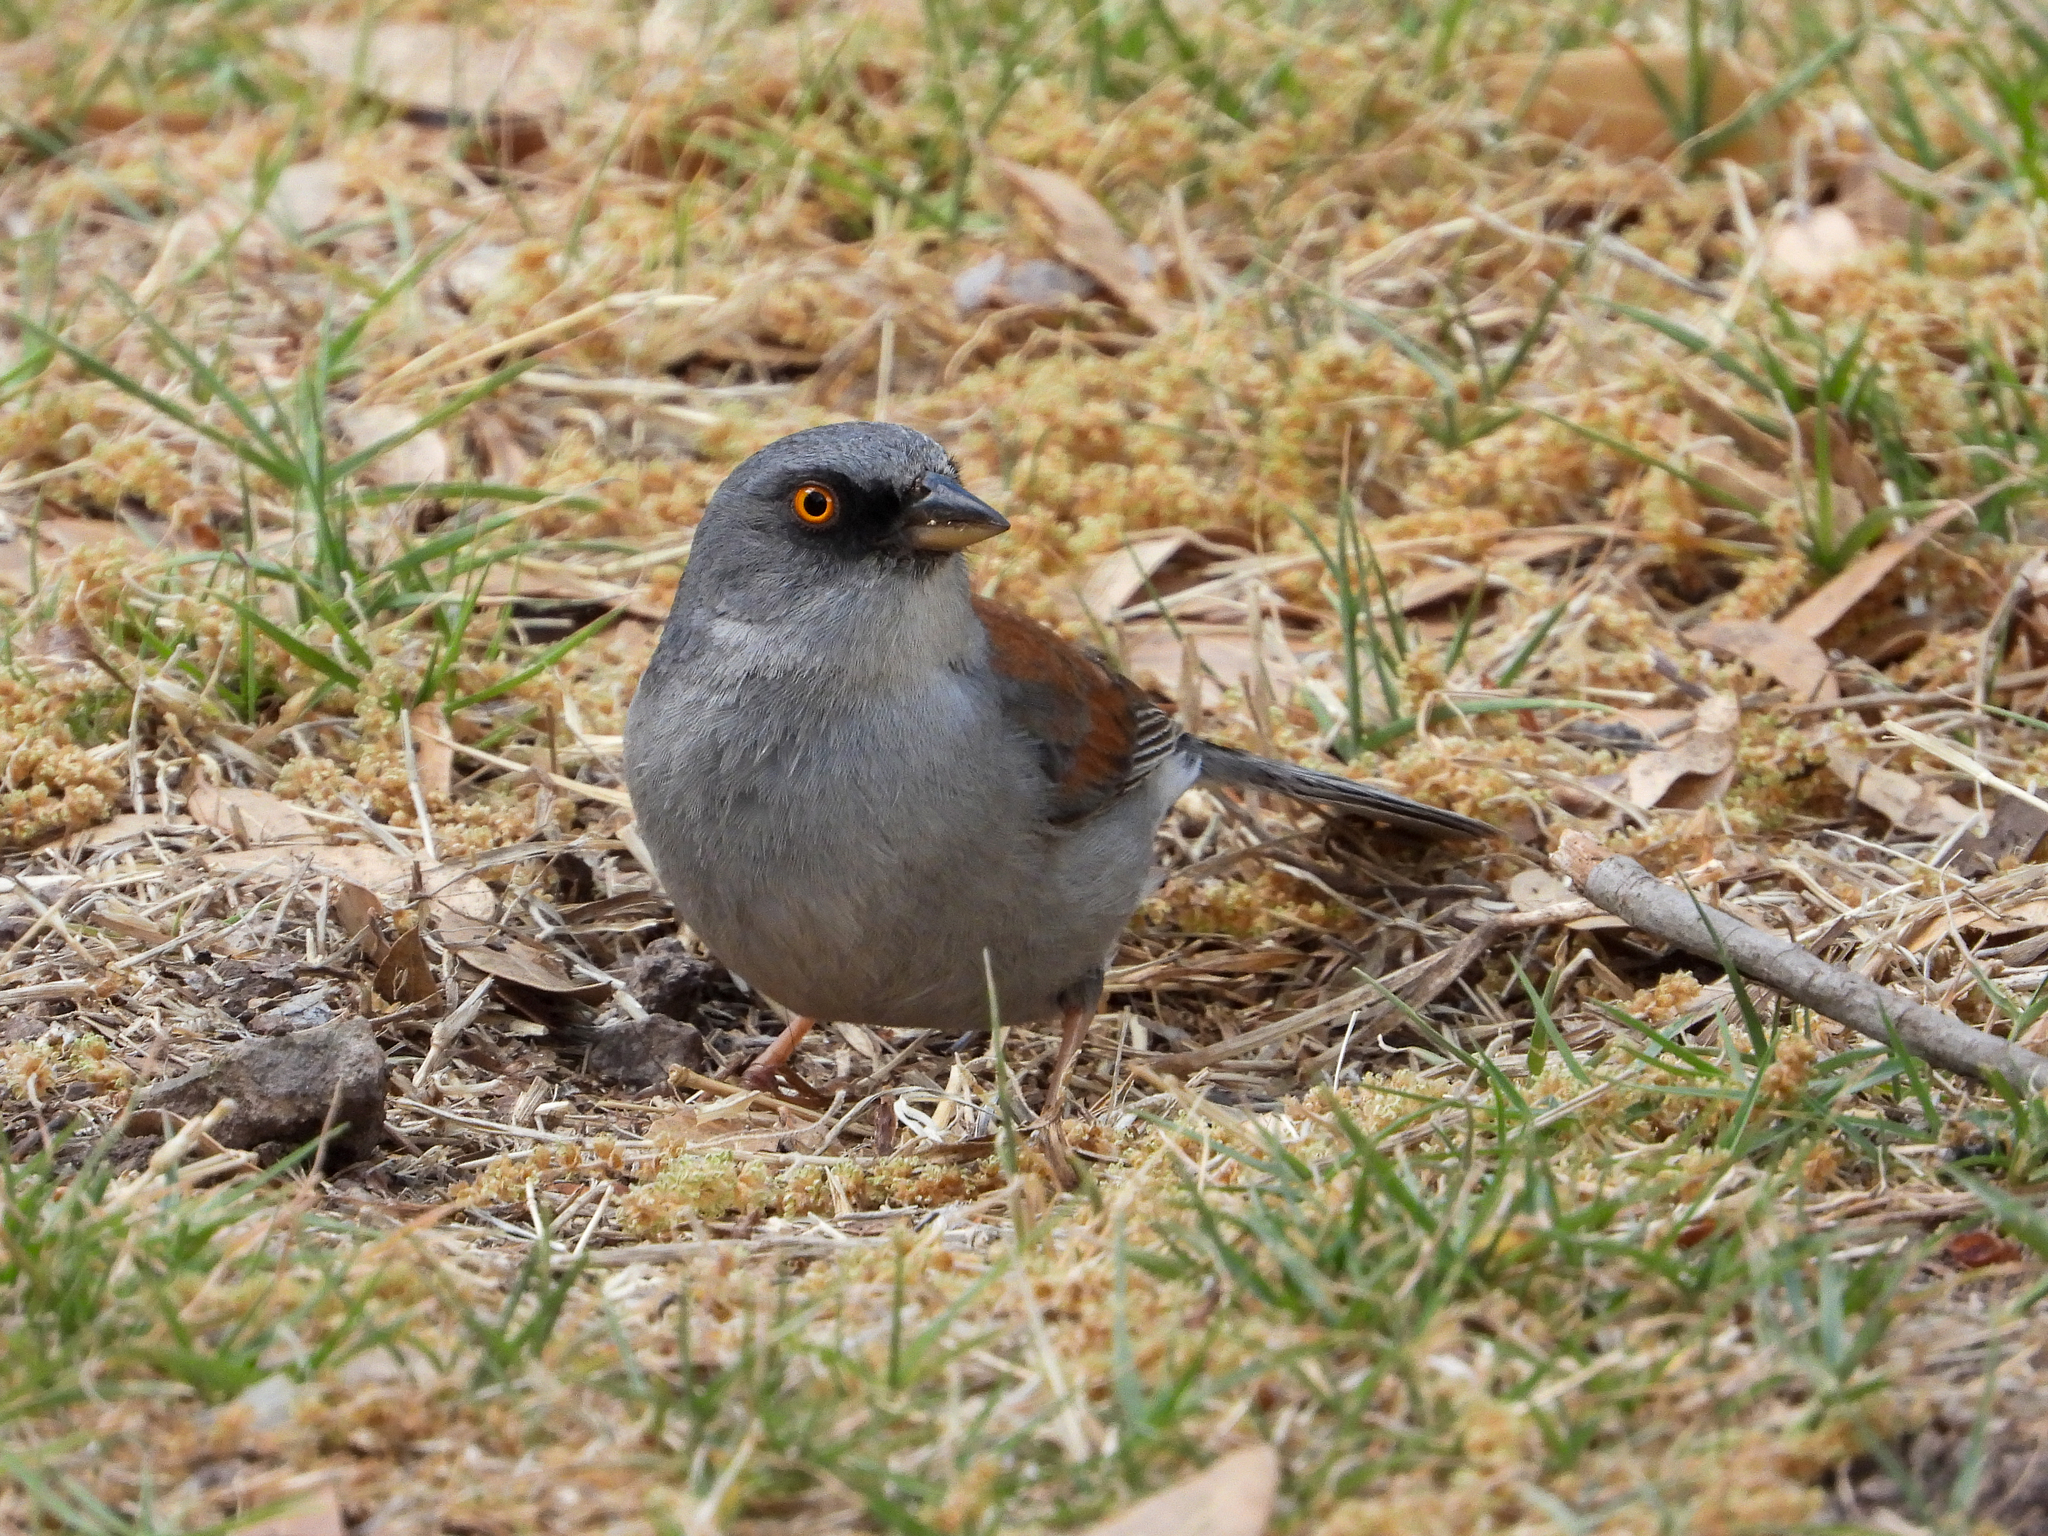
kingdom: Animalia
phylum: Chordata
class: Aves
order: Passeriformes
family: Passerellidae
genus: Junco
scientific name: Junco phaeonotus
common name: Yellow-eyed junco
